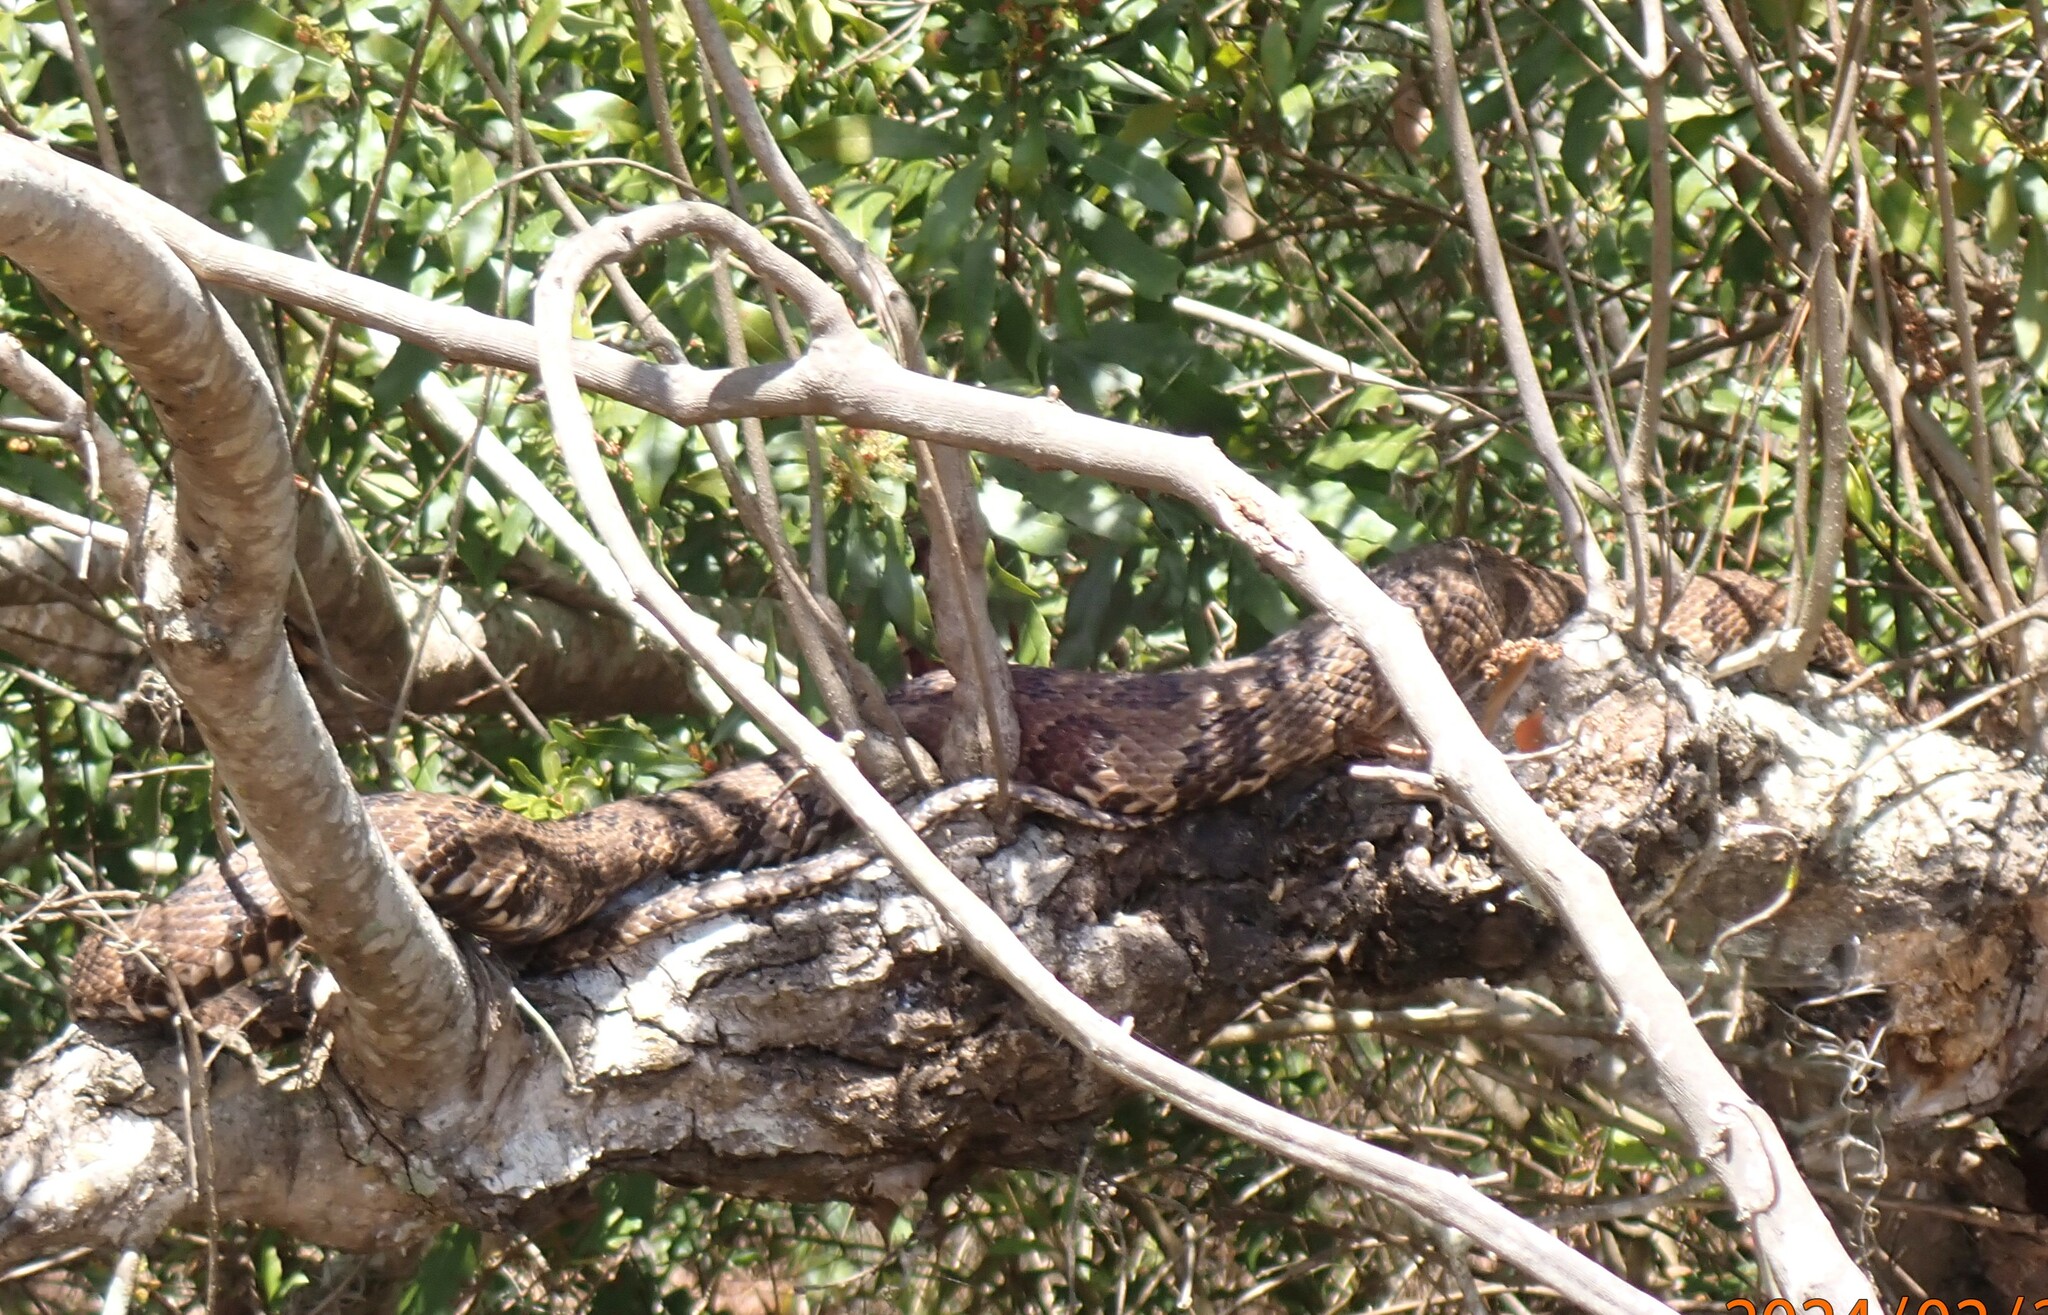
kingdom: Animalia
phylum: Chordata
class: Squamata
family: Colubridae
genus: Nerodia
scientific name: Nerodia taxispilota
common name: Brown water snake
